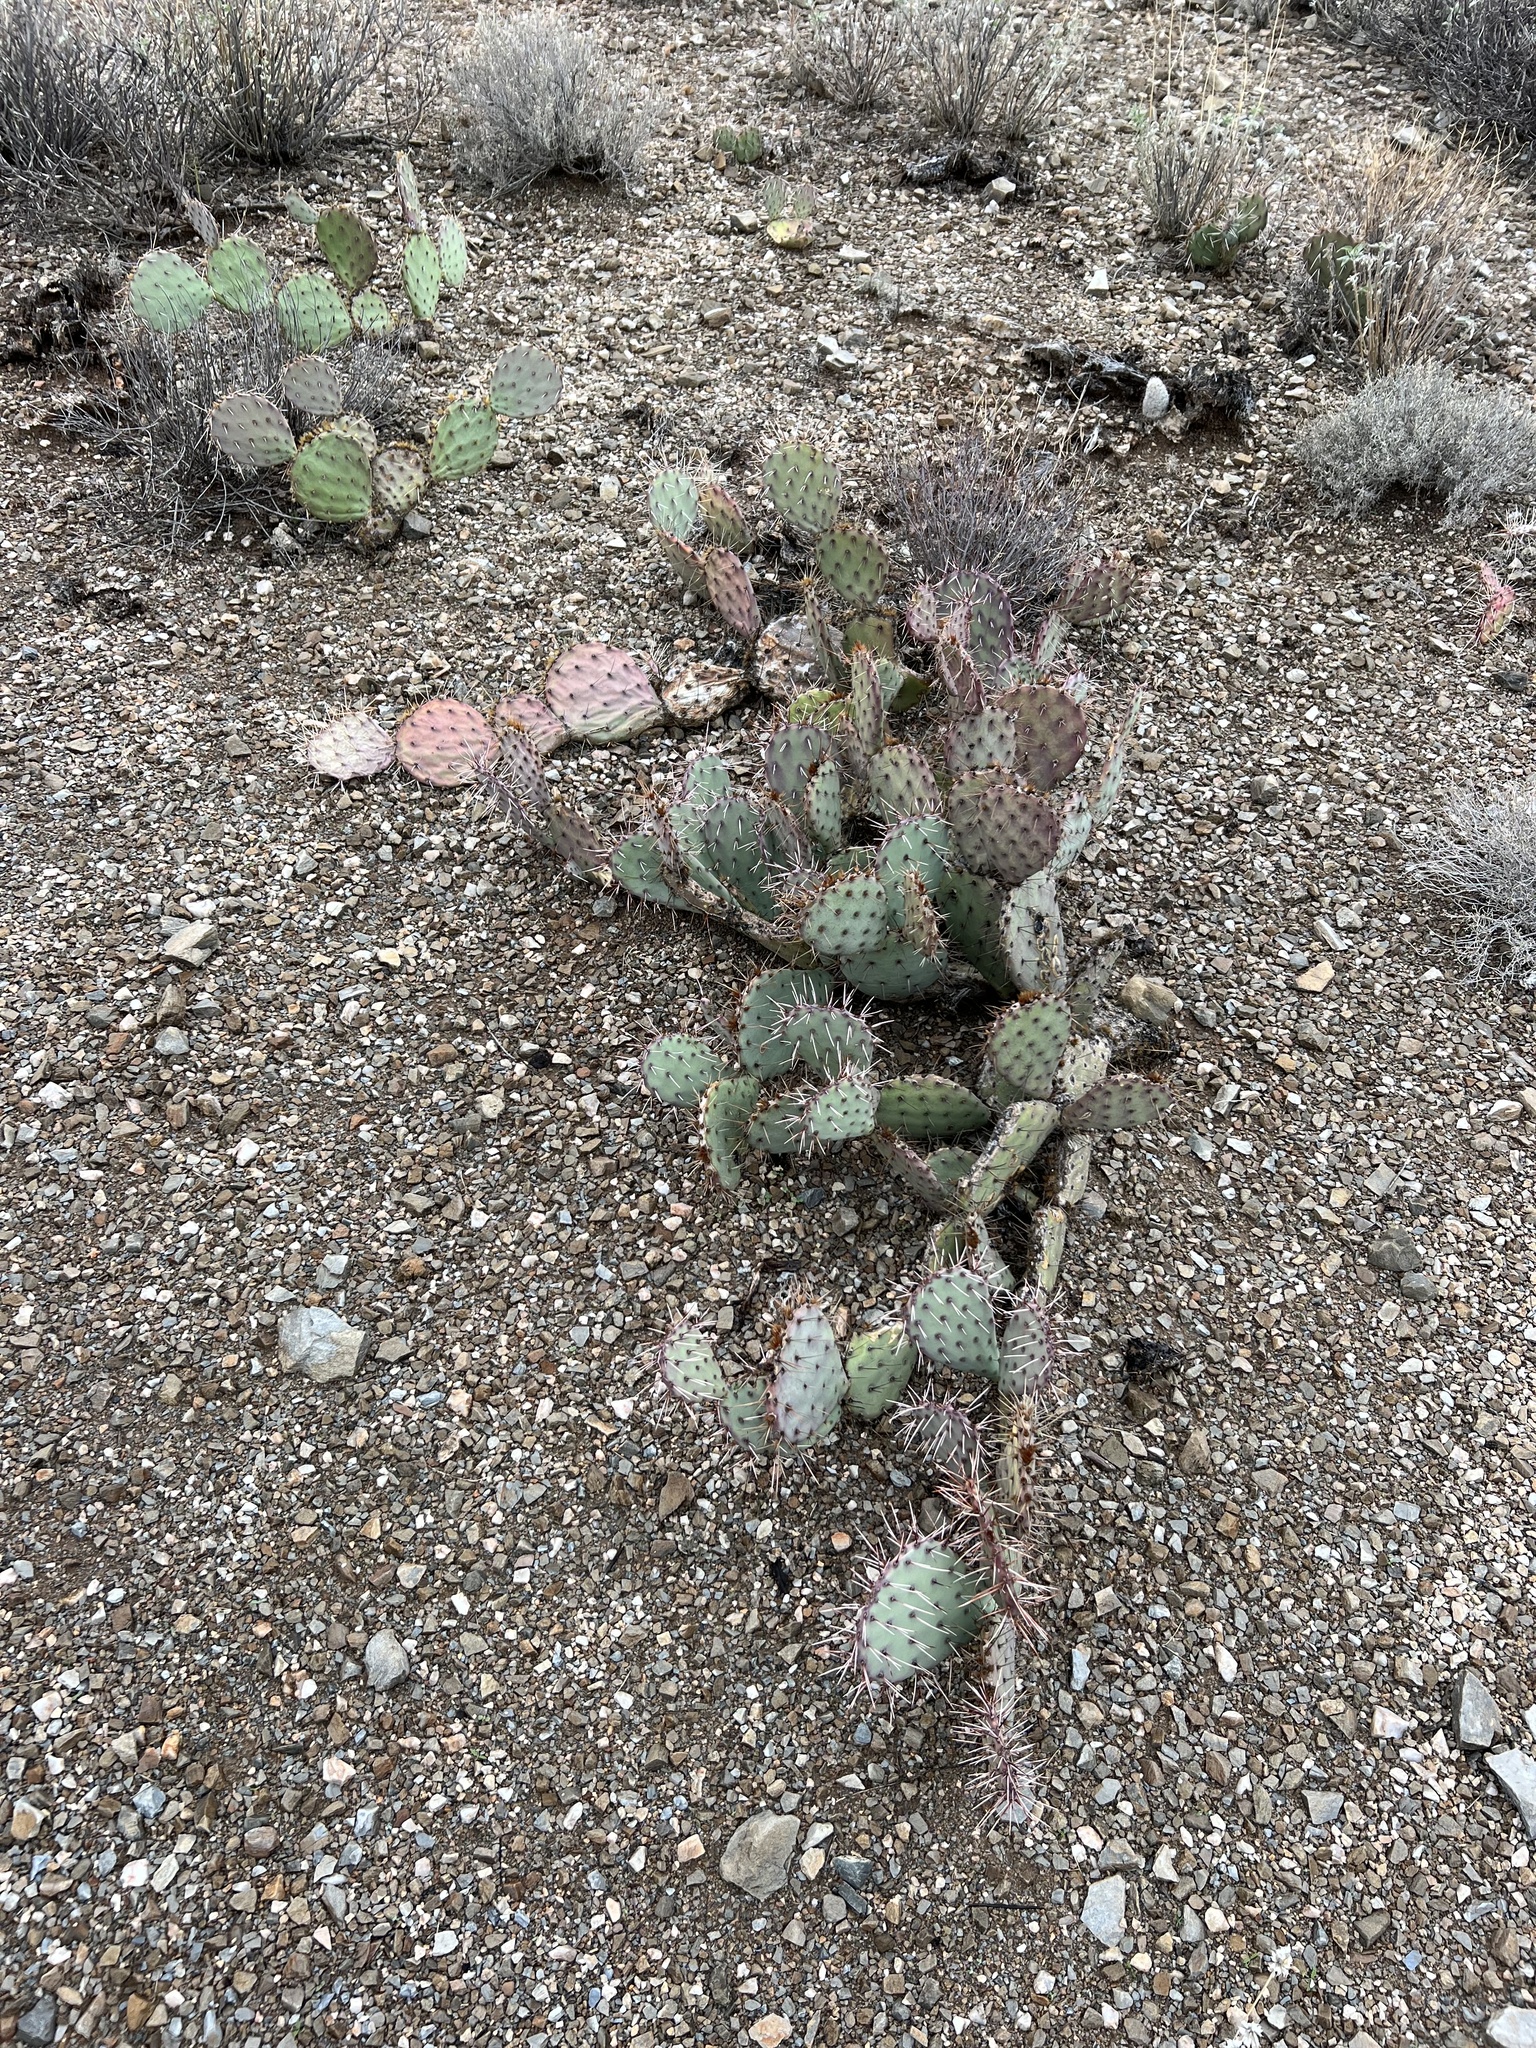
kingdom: Plantae
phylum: Tracheophyta
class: Magnoliopsida
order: Caryophyllales
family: Cactaceae
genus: Opuntia
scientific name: Opuntia phaeacantha
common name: New mexico prickly-pear
